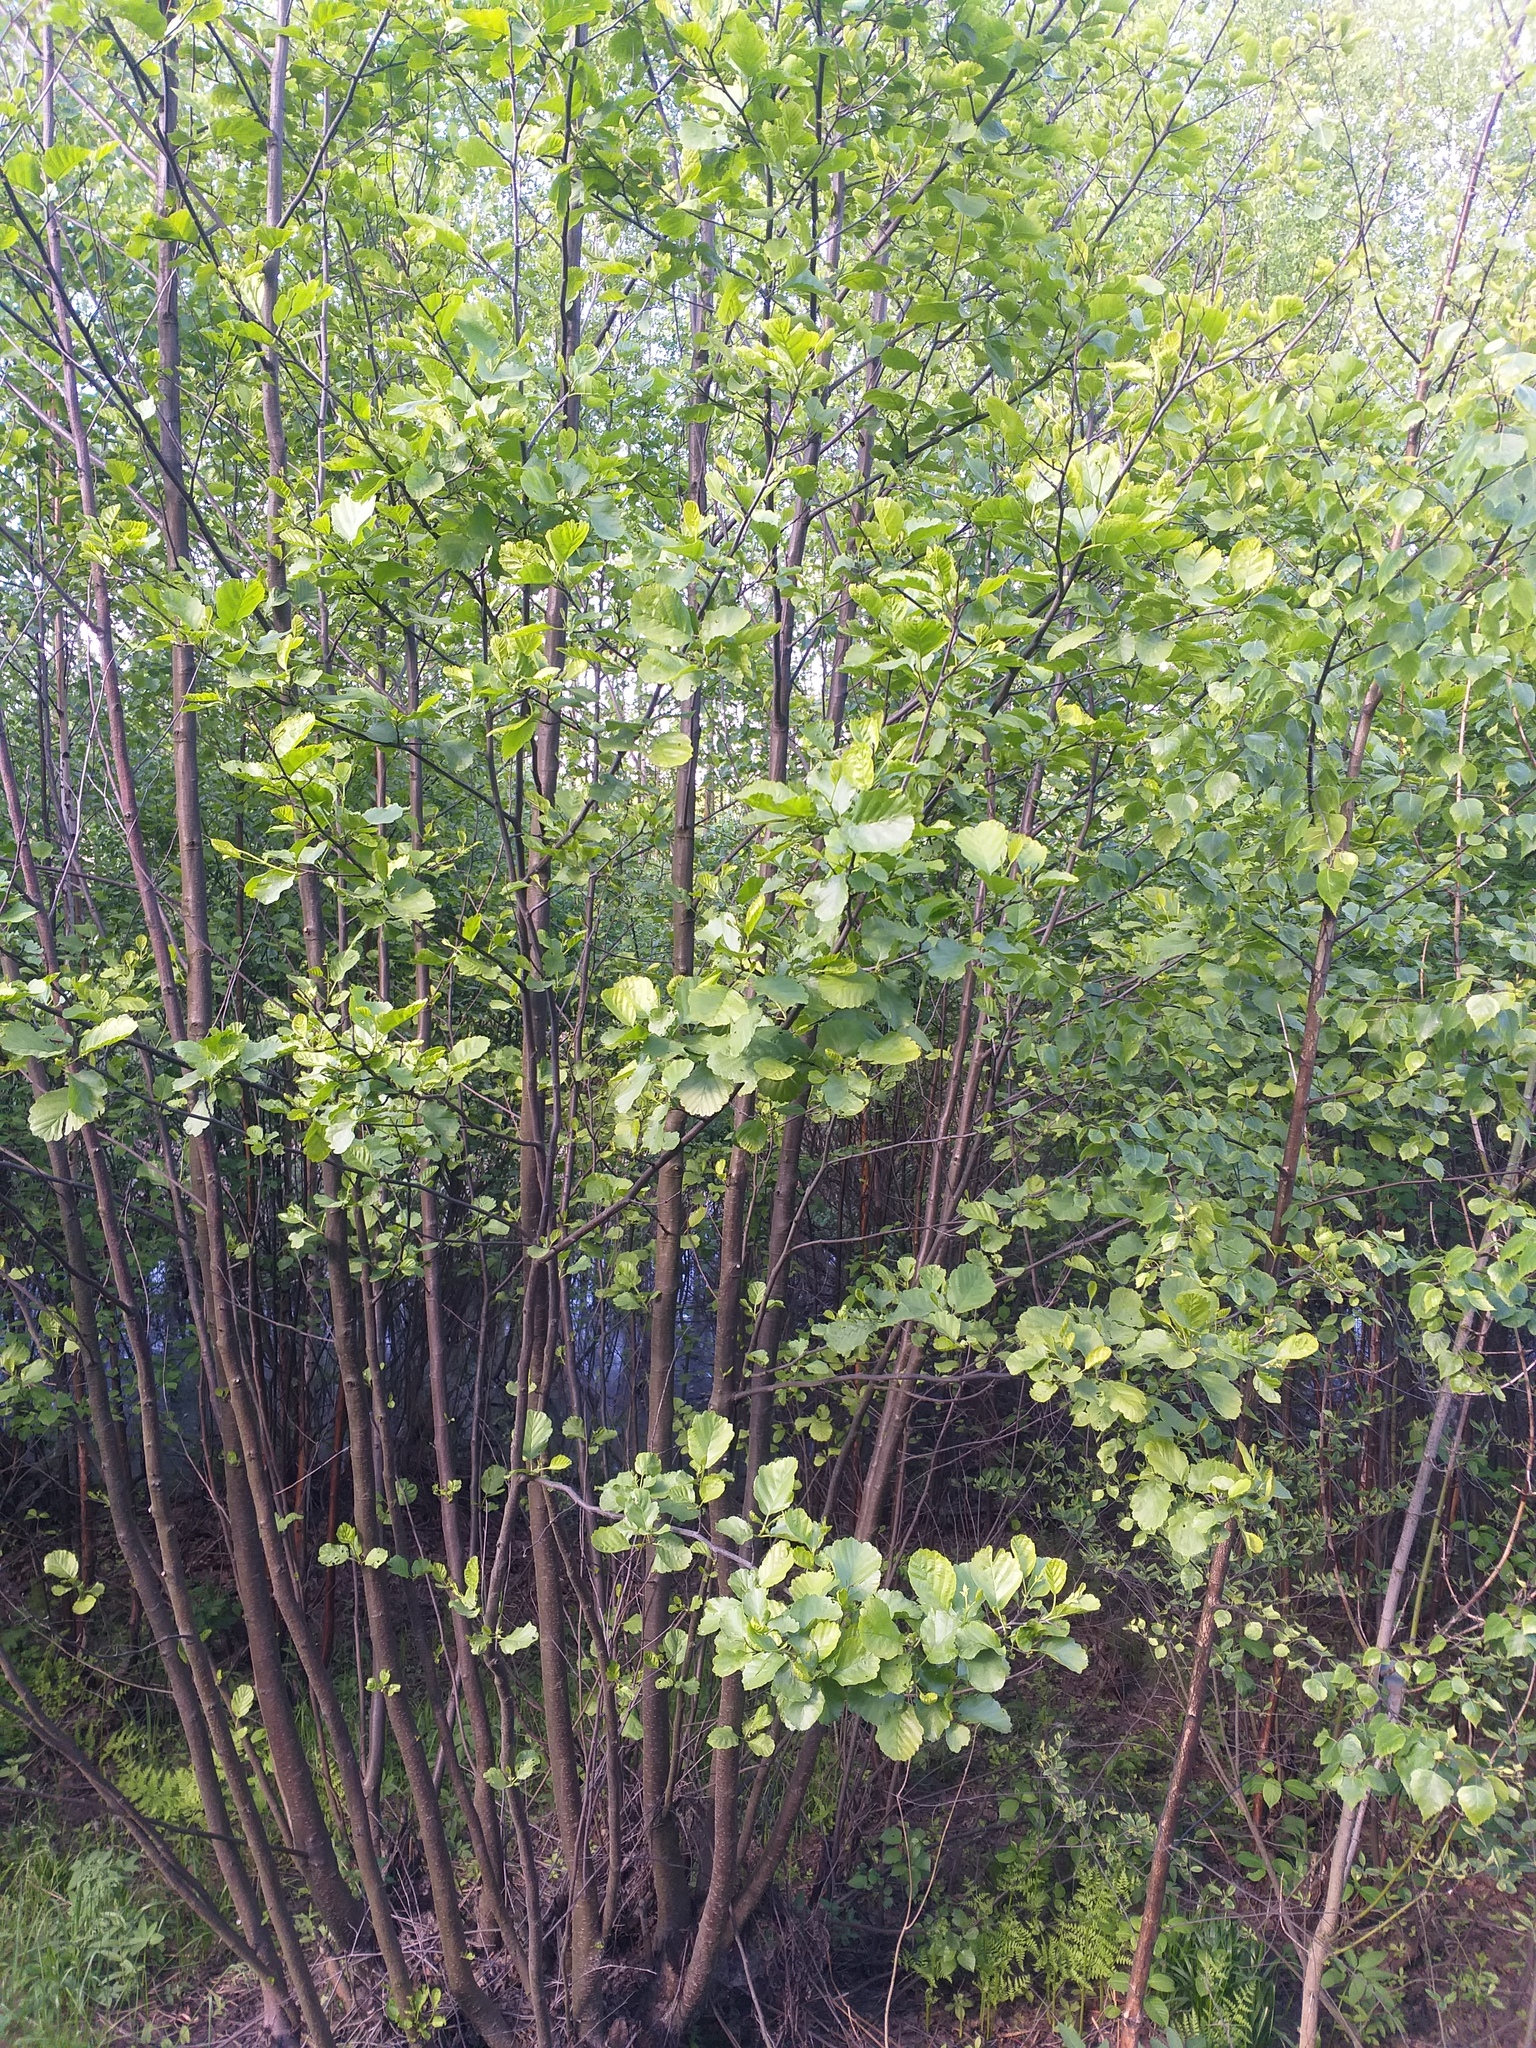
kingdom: Plantae
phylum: Tracheophyta
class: Magnoliopsida
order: Fagales
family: Betulaceae
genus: Alnus
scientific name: Alnus glutinosa
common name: Black alder
